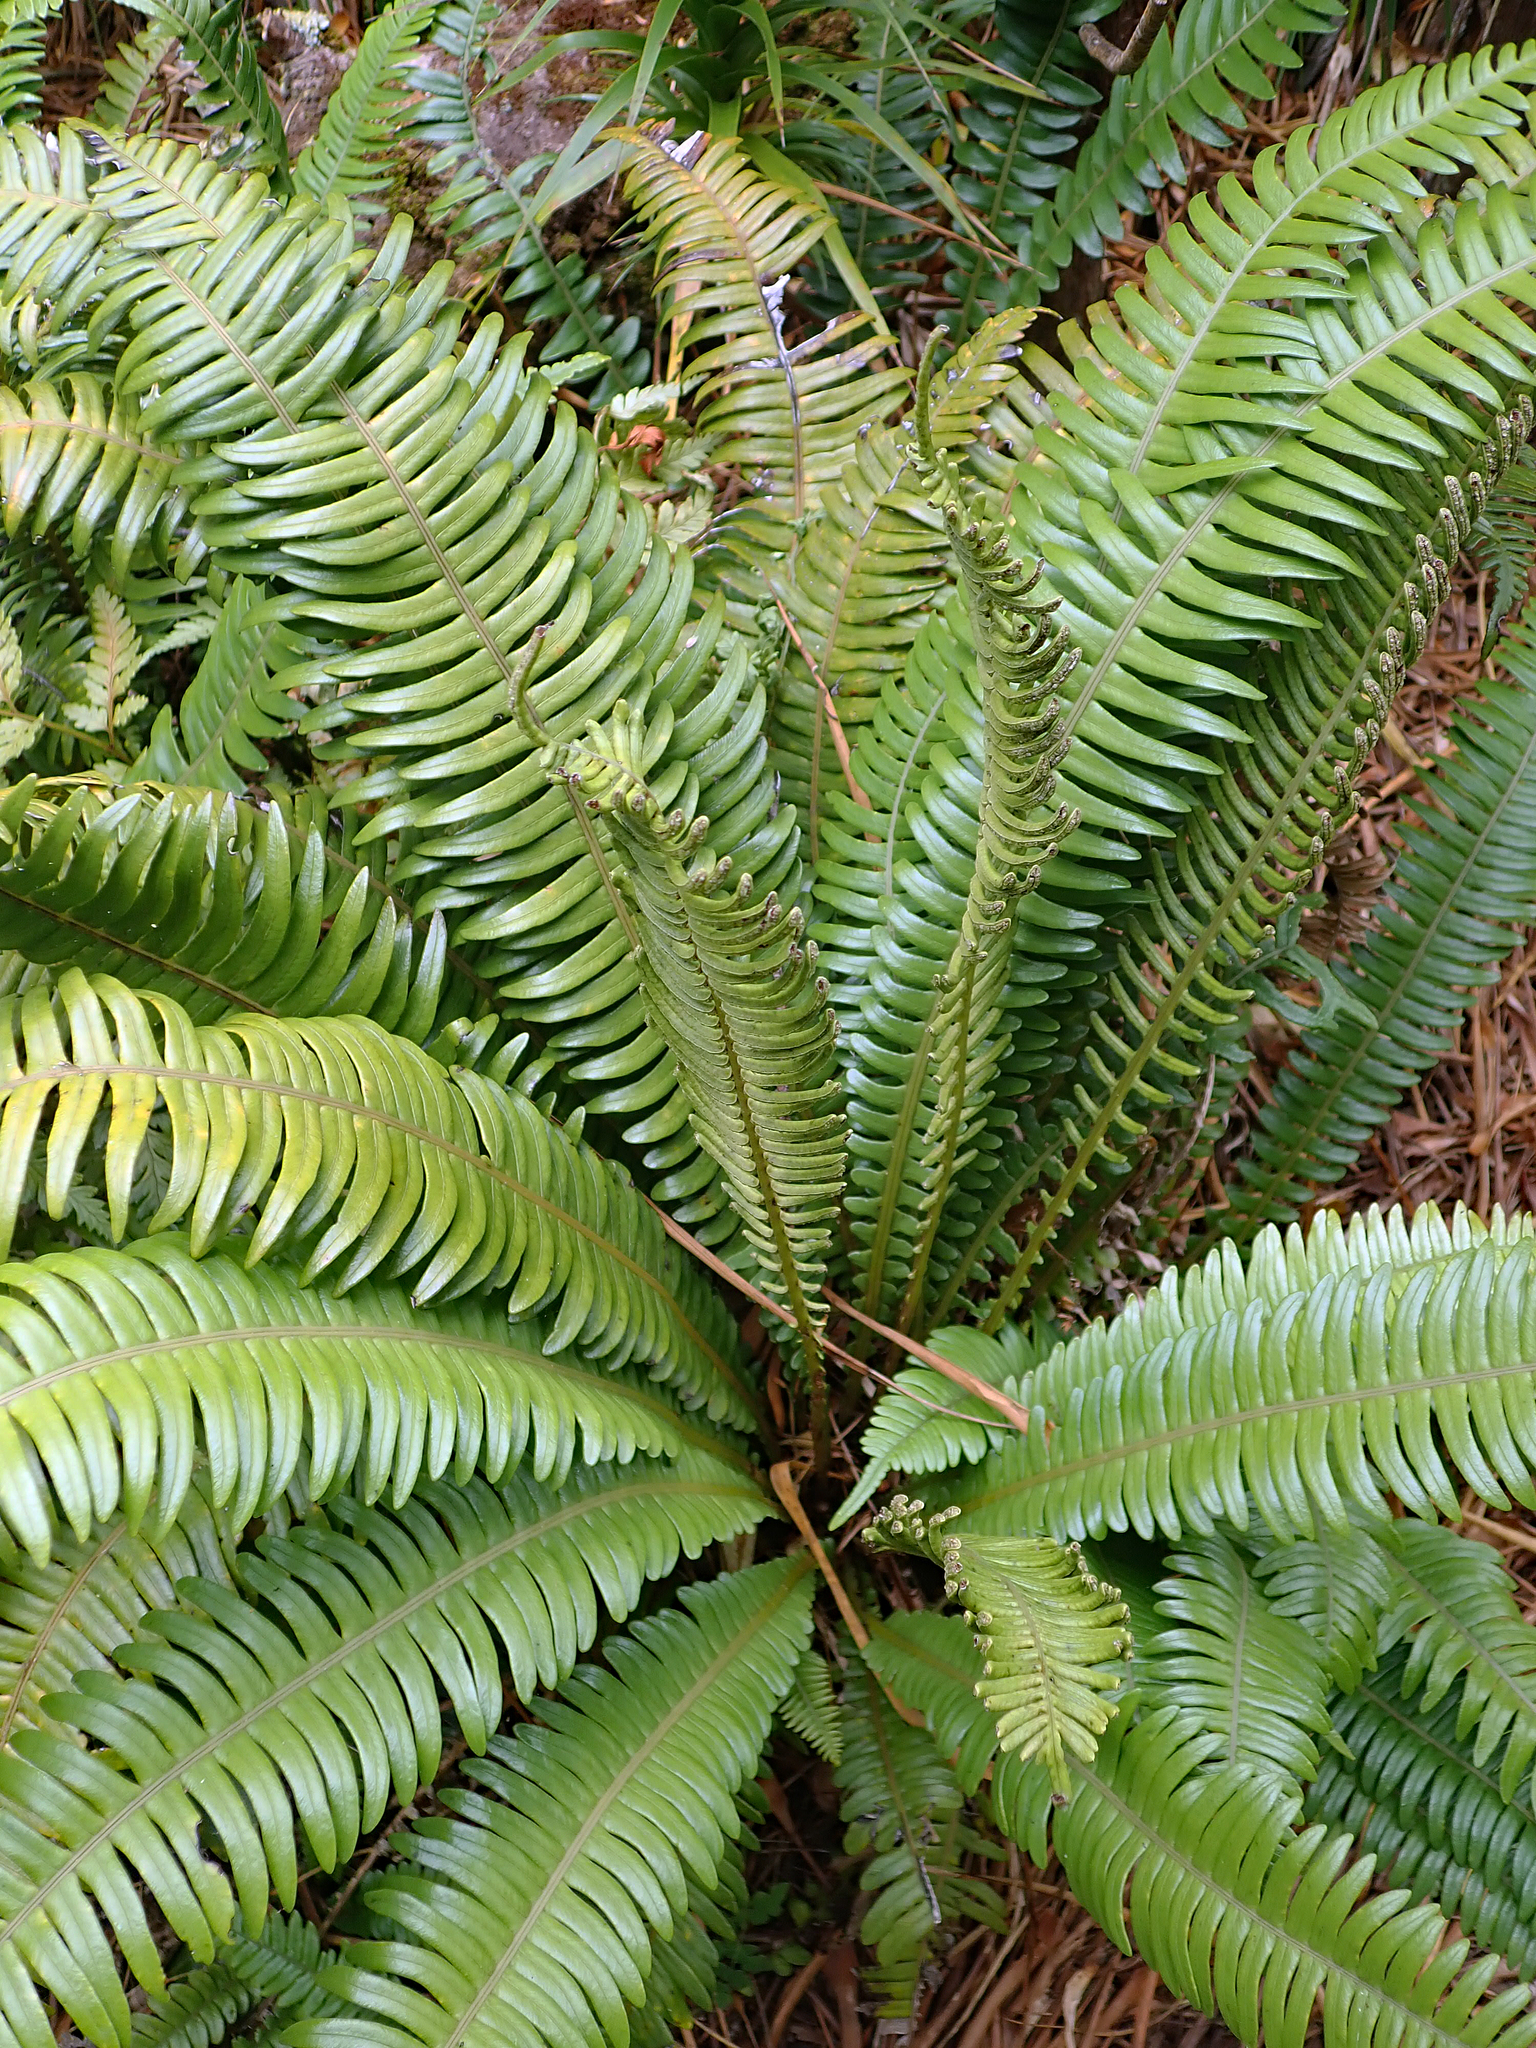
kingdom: Plantae
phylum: Tracheophyta
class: Polypodiopsida
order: Polypodiales
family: Blechnaceae
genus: Austroblechnum
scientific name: Austroblechnum durum
